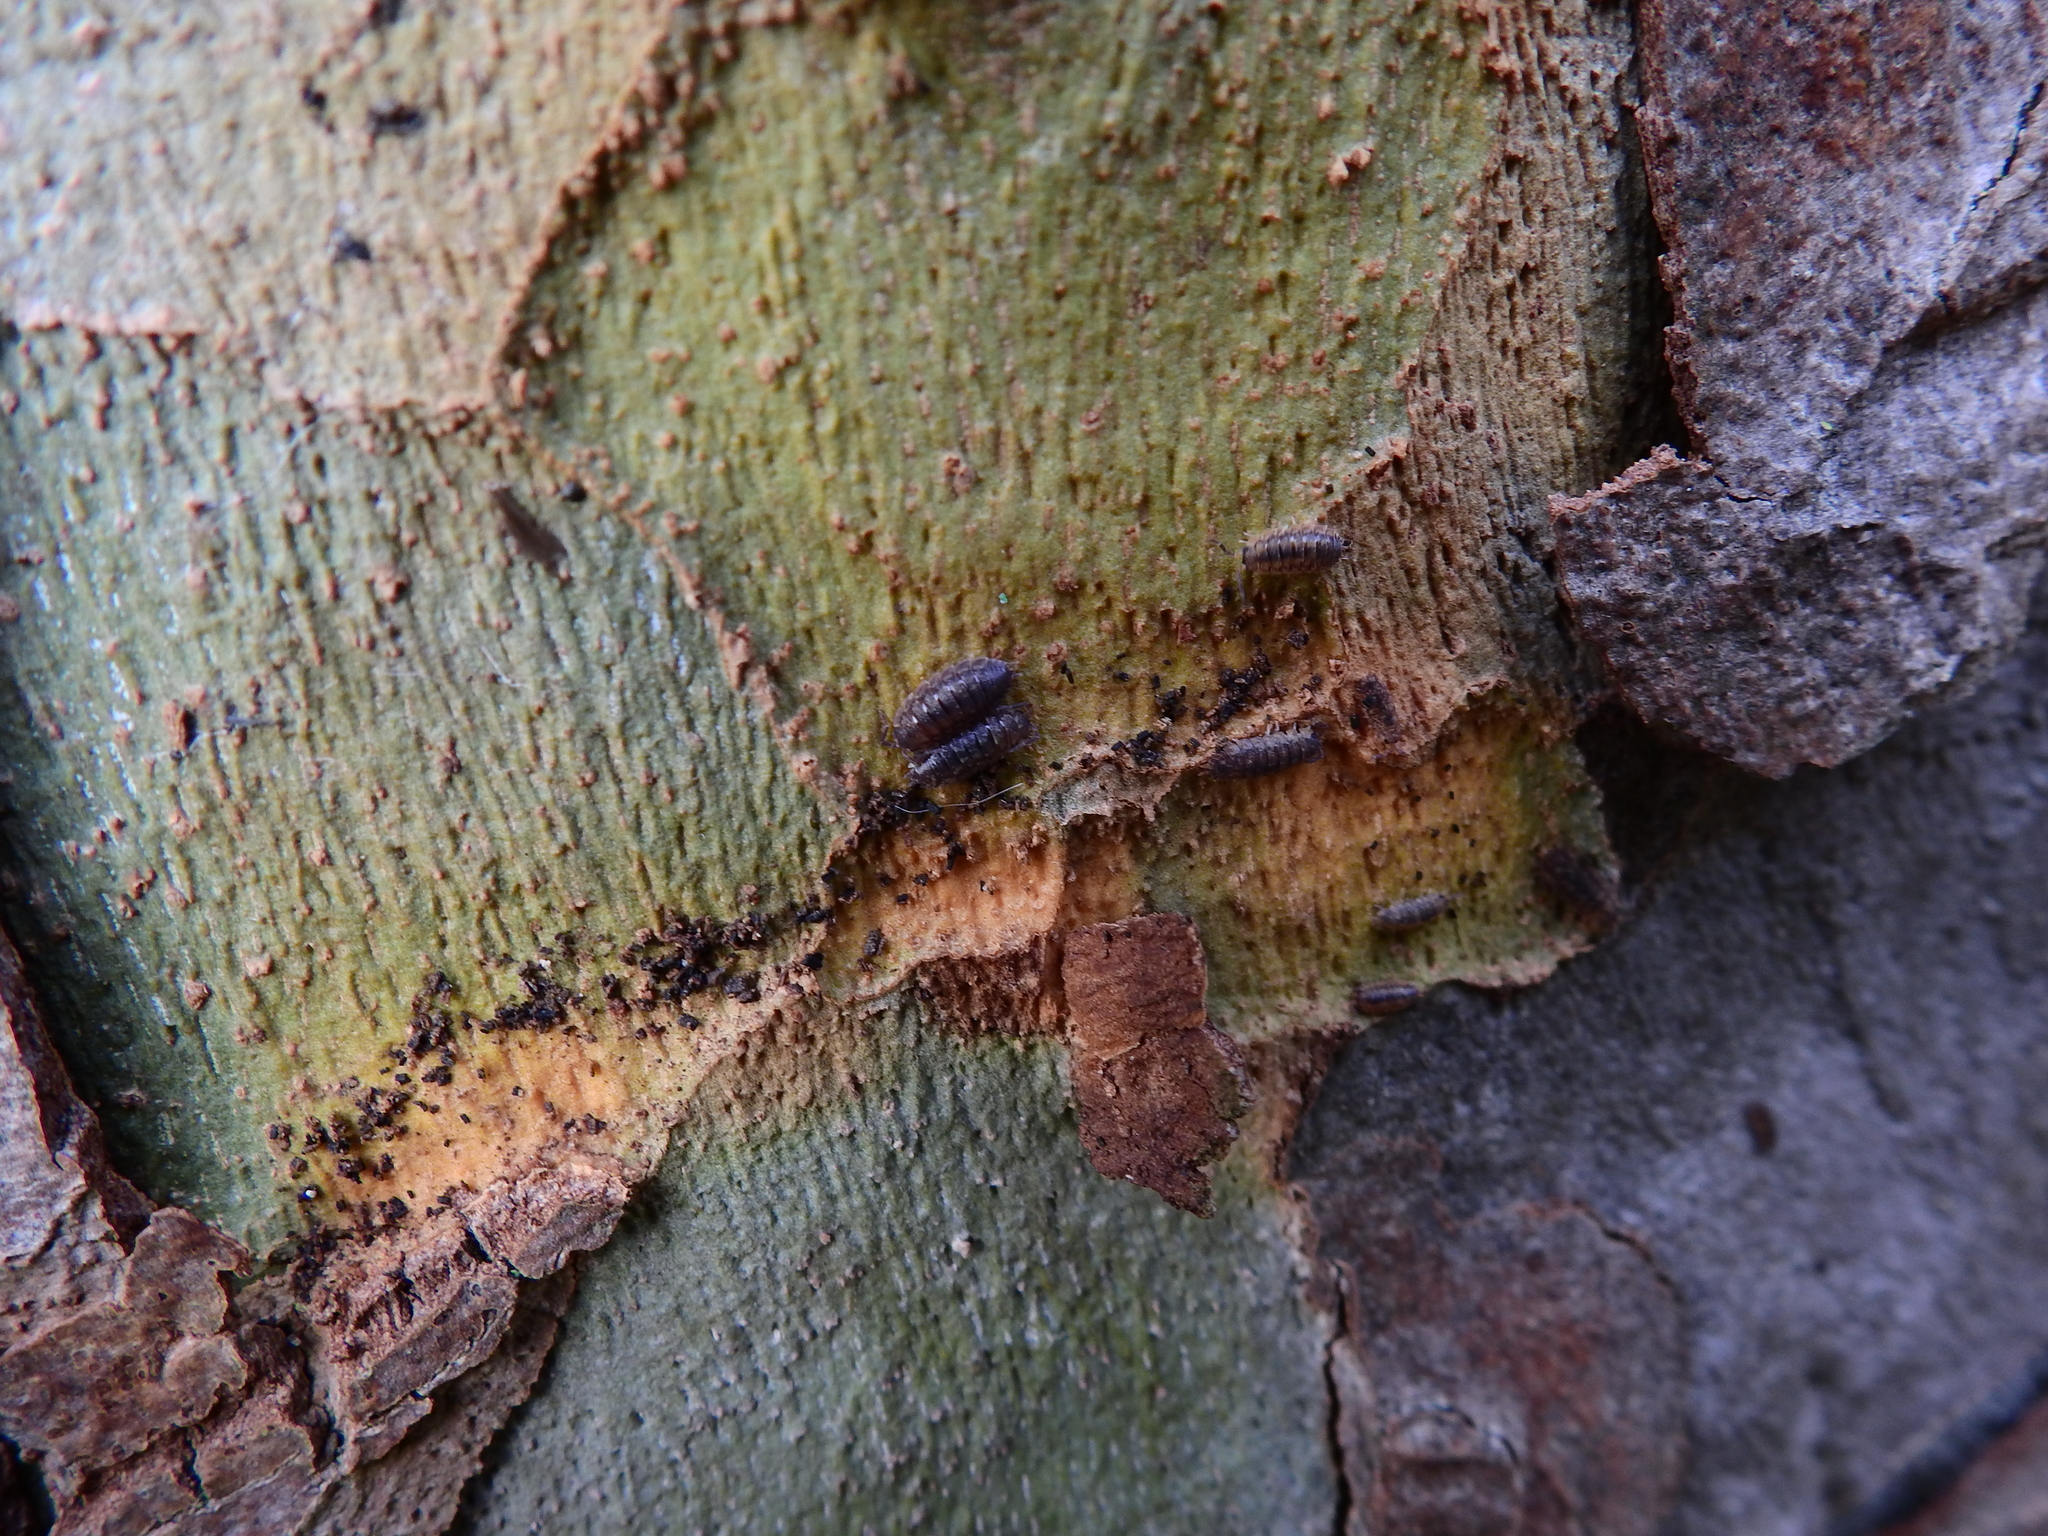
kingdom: Animalia
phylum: Arthropoda
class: Malacostraca
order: Isopoda
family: Porcellionidae
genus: Porcellio
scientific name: Porcellio scaber
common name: Common rough woodlouse
